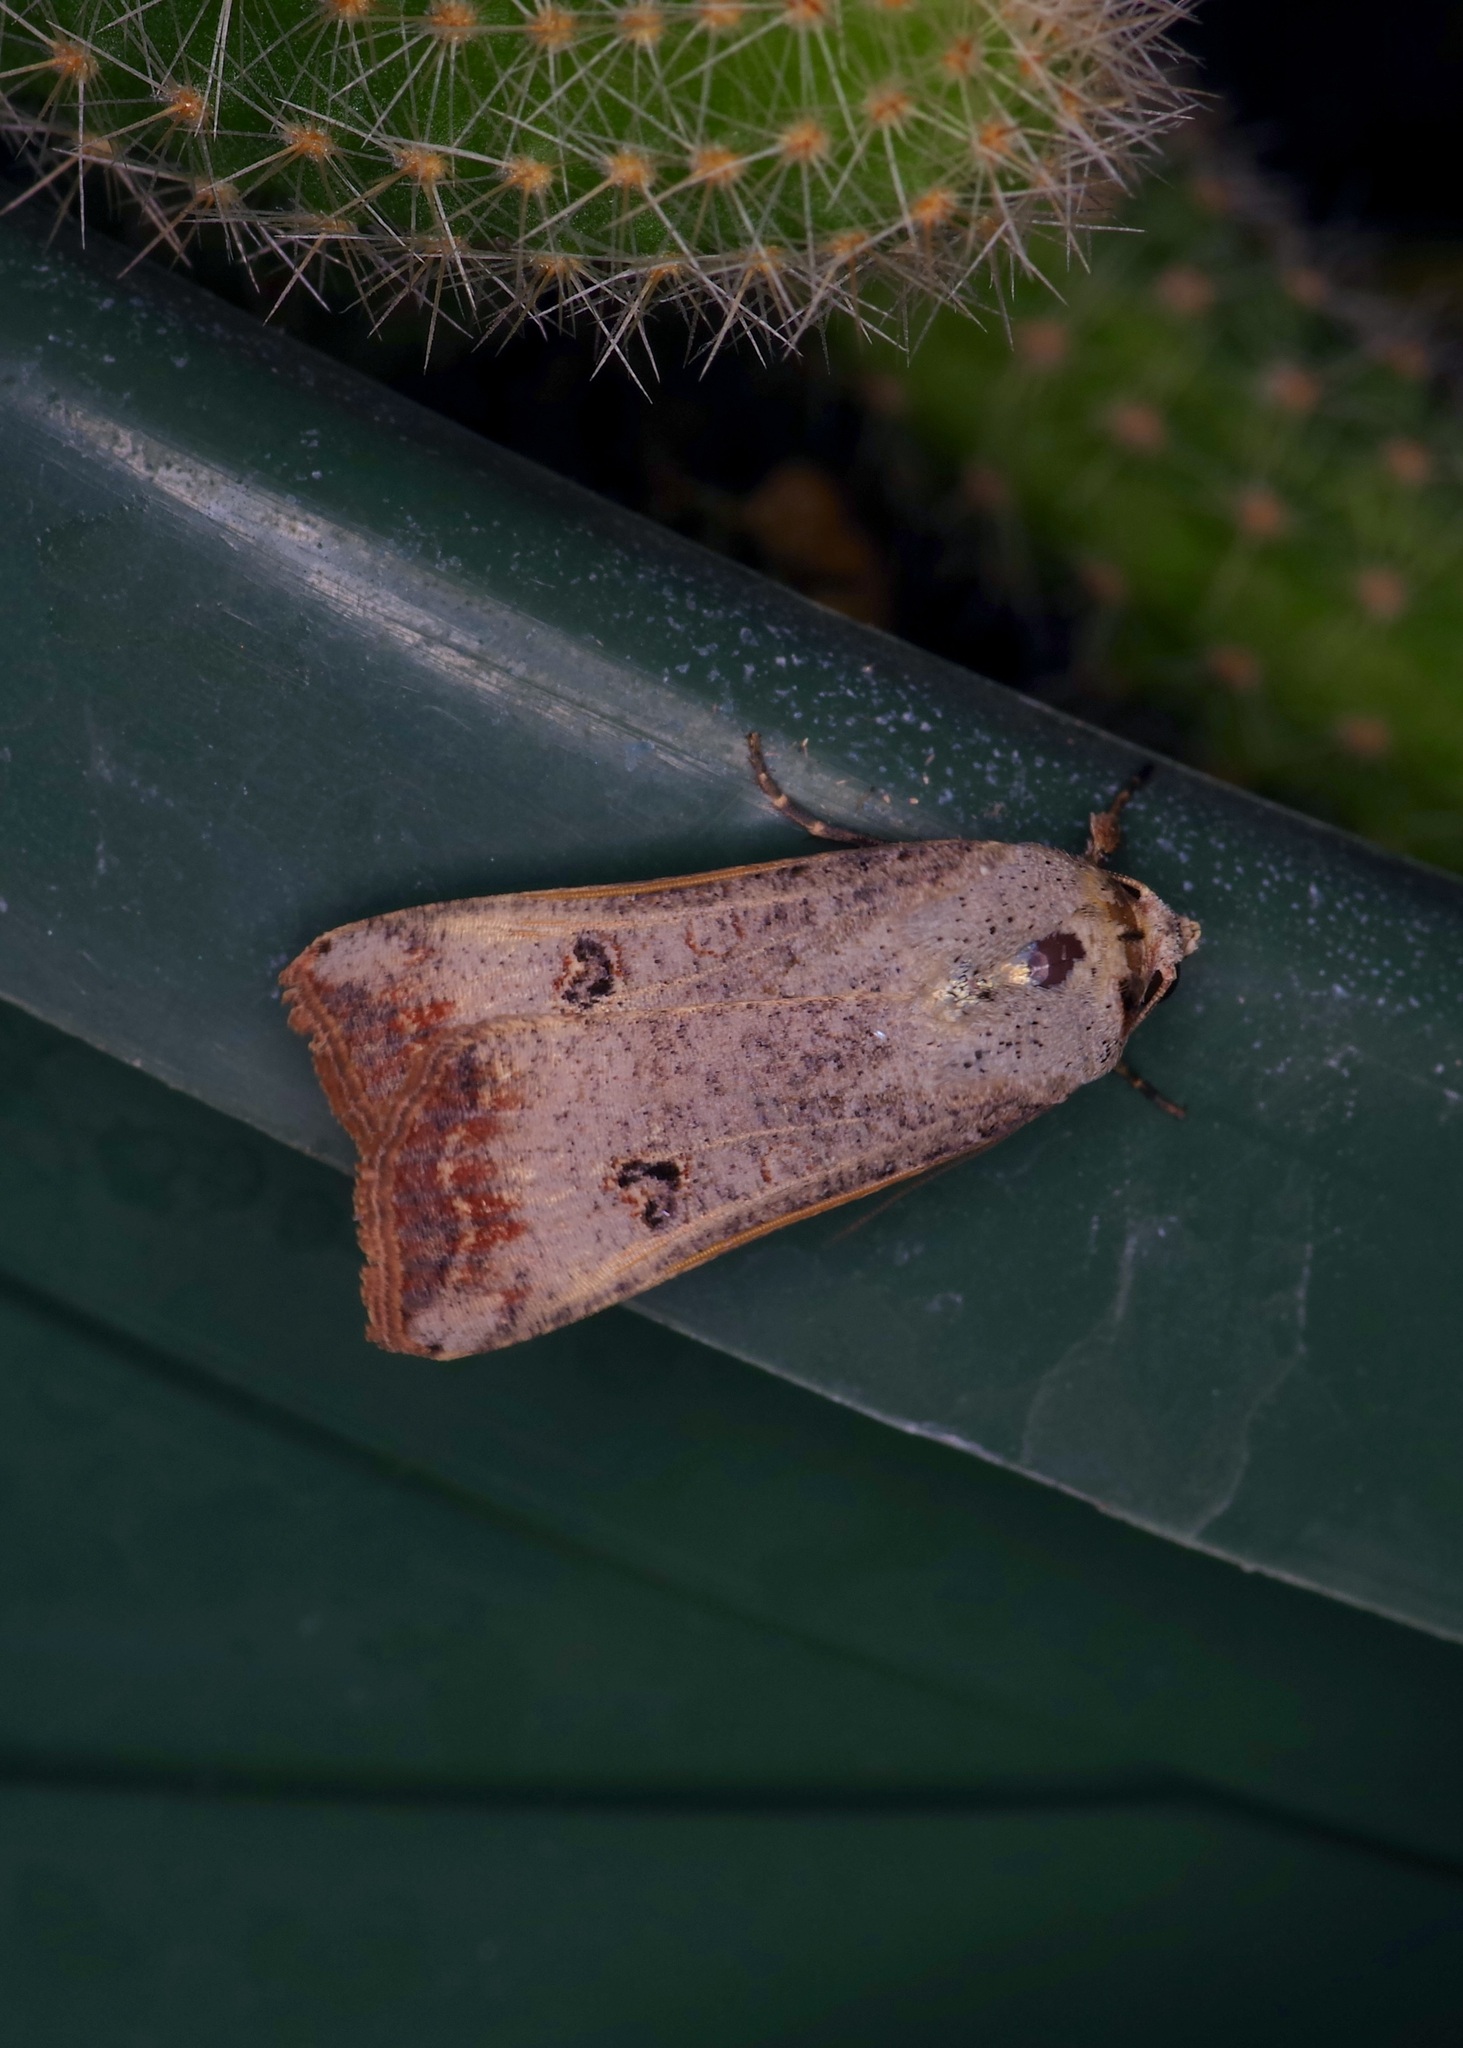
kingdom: Animalia
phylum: Arthropoda
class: Insecta
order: Lepidoptera
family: Noctuidae
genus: Anicla
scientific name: Anicla infecta
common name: Green cutworm
